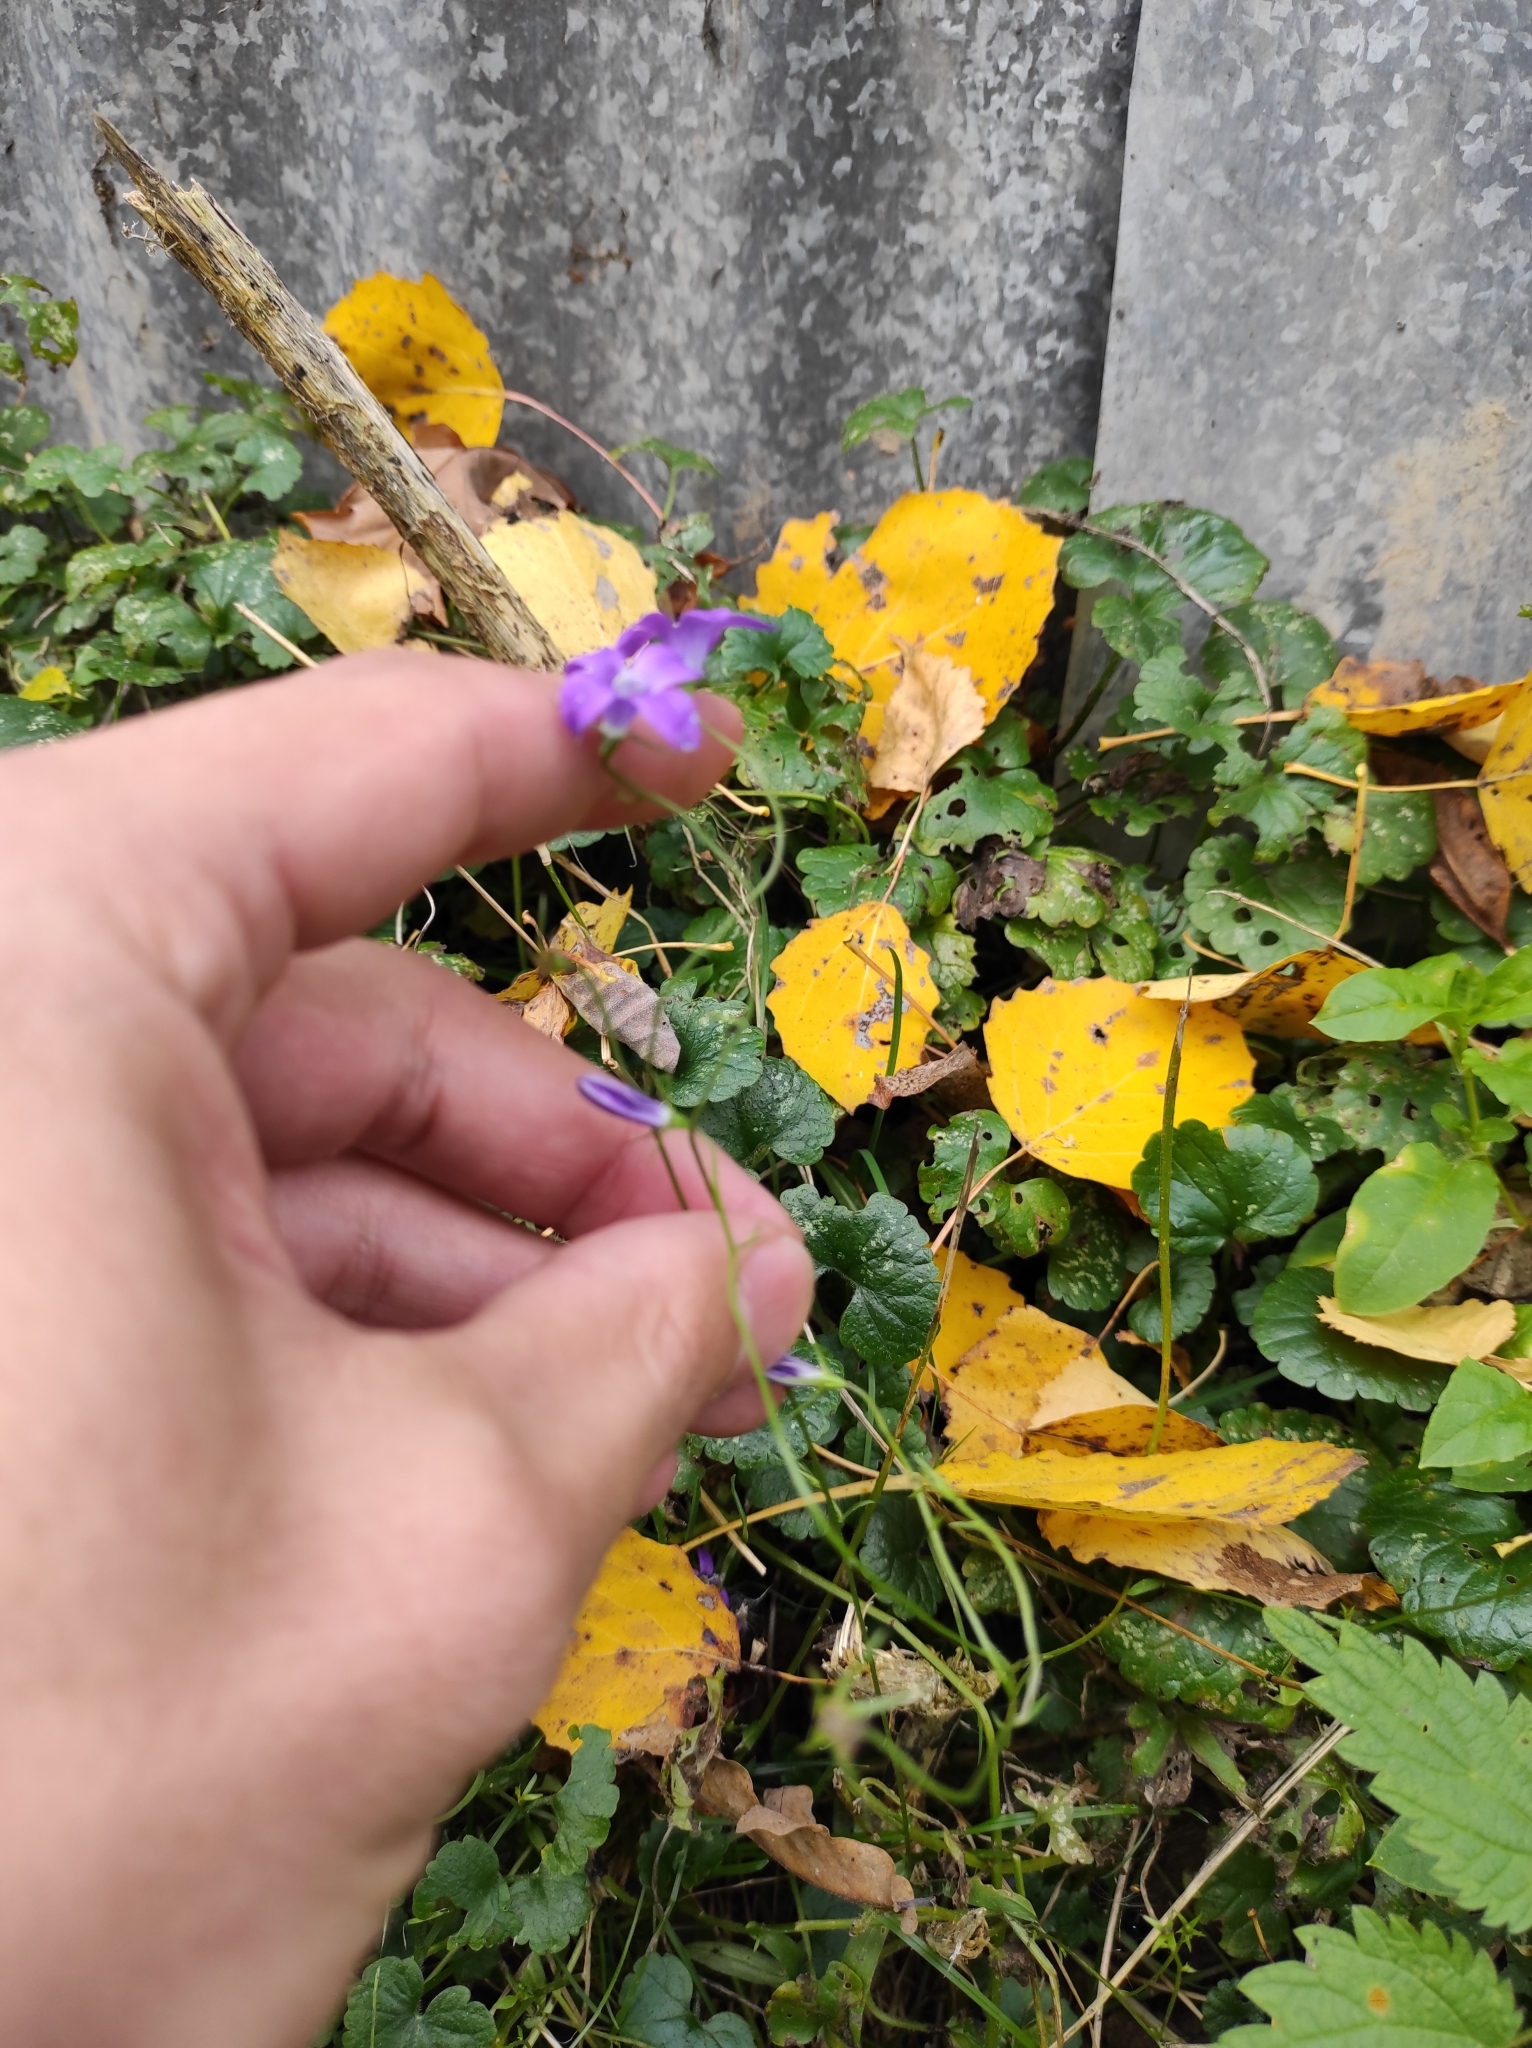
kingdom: Plantae
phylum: Tracheophyta
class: Magnoliopsida
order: Asterales
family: Campanulaceae
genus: Campanula
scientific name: Campanula patula
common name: Spreading bellflower
